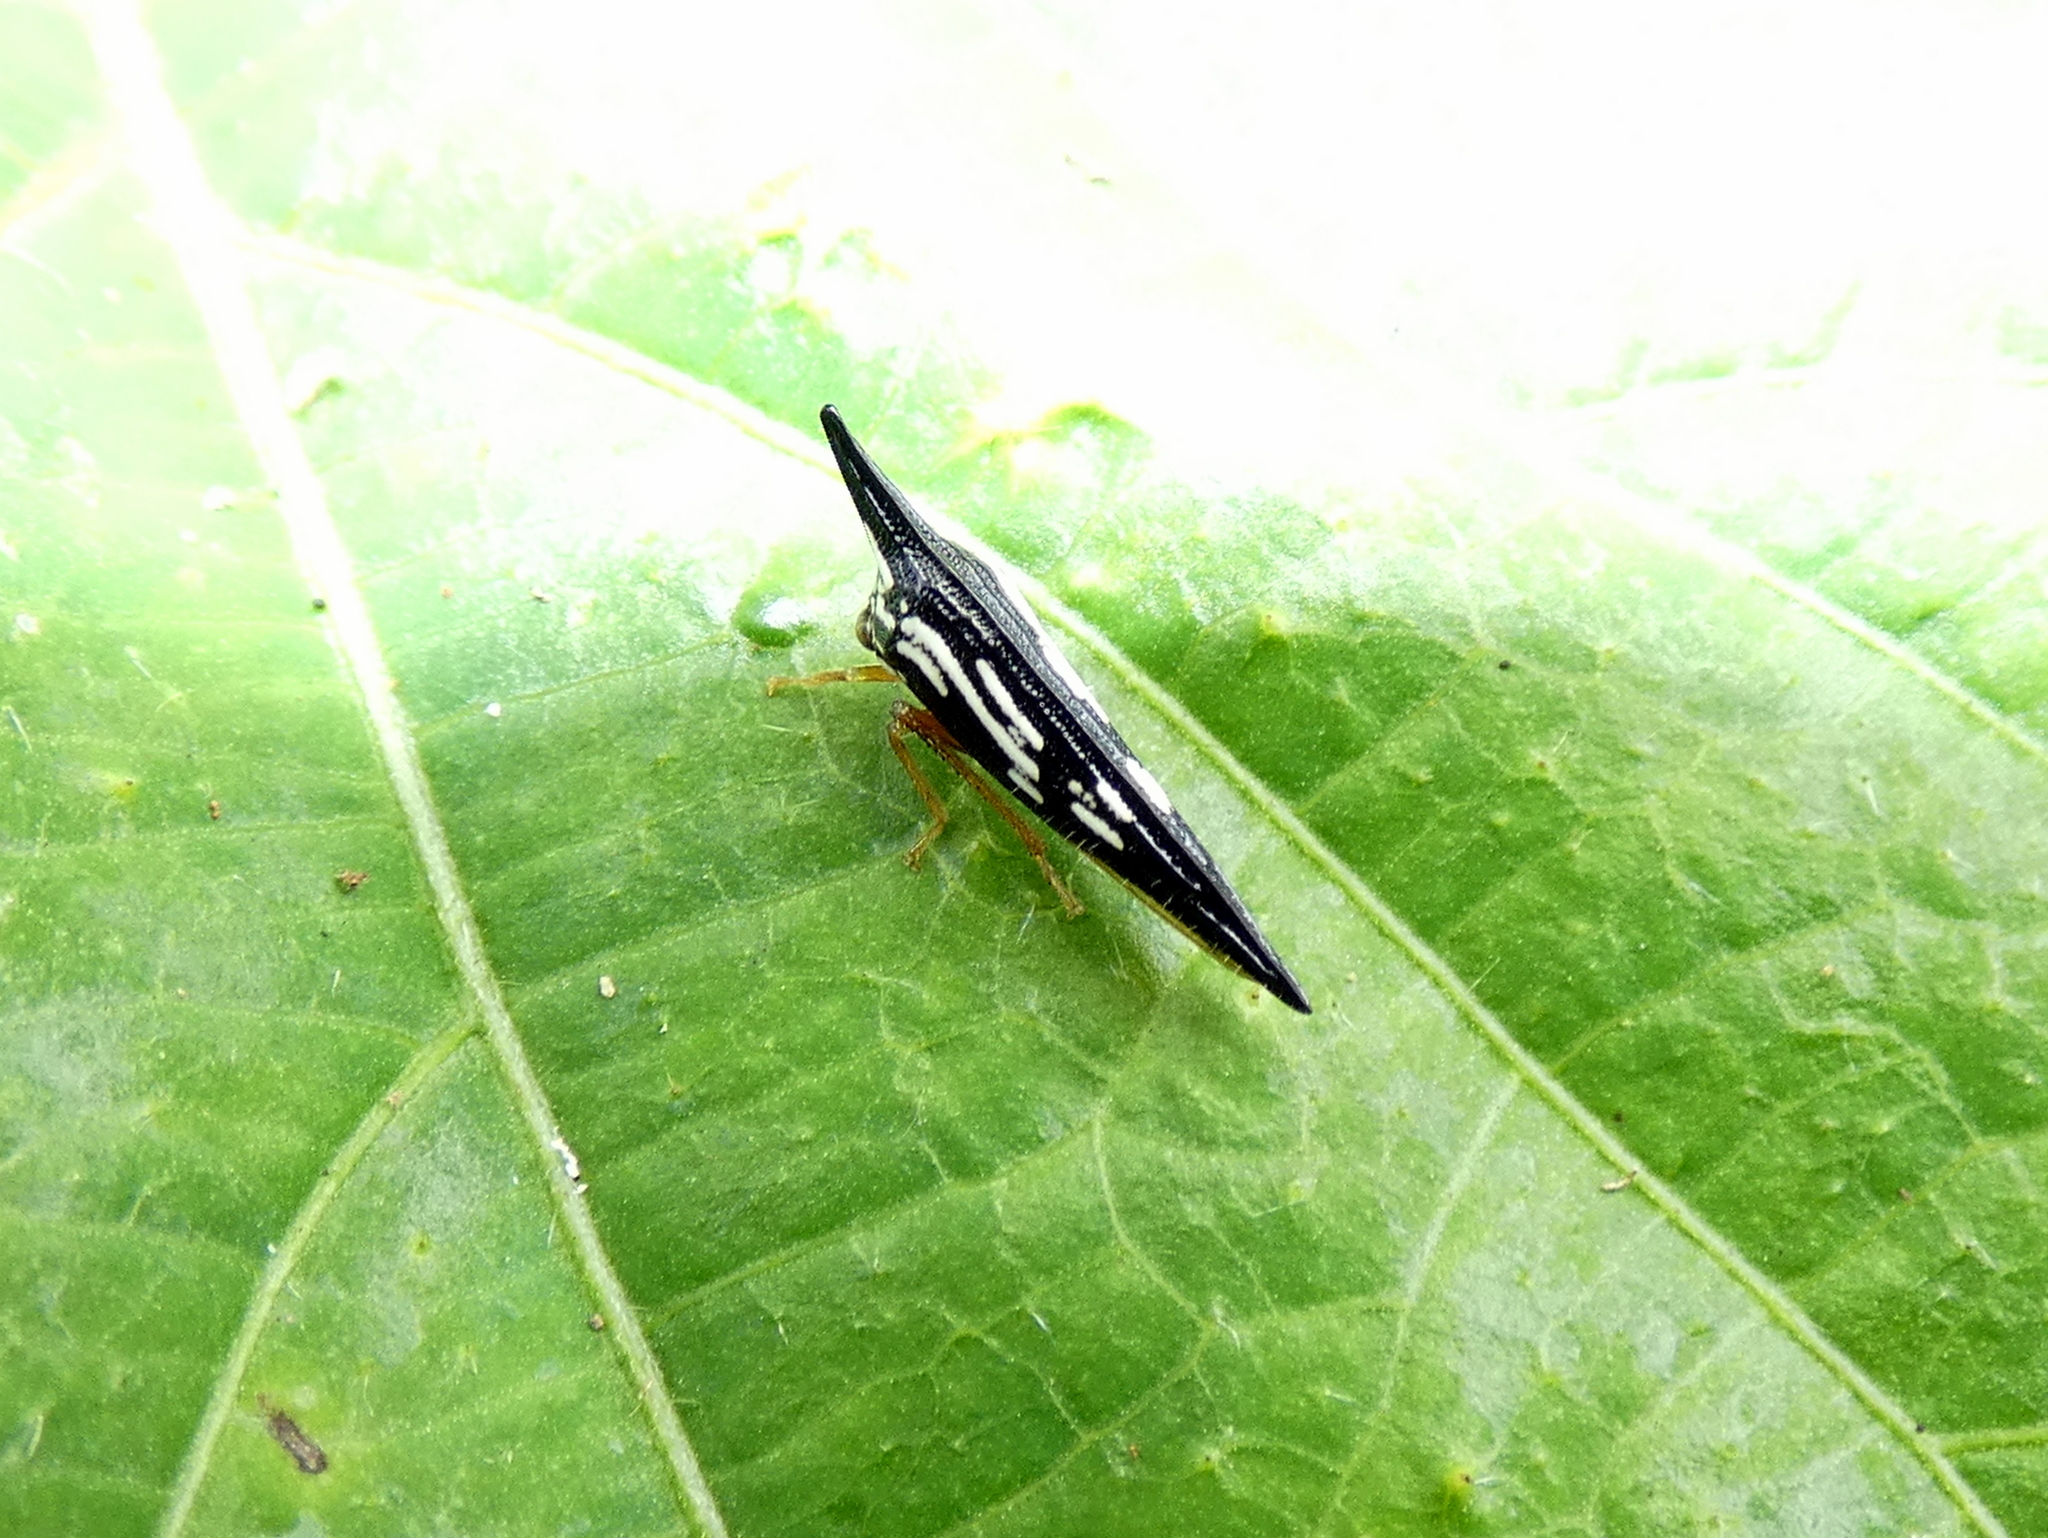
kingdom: Animalia
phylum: Arthropoda
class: Insecta
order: Hemiptera
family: Membracidae
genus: Polyglypta
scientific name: Polyglypta costata
